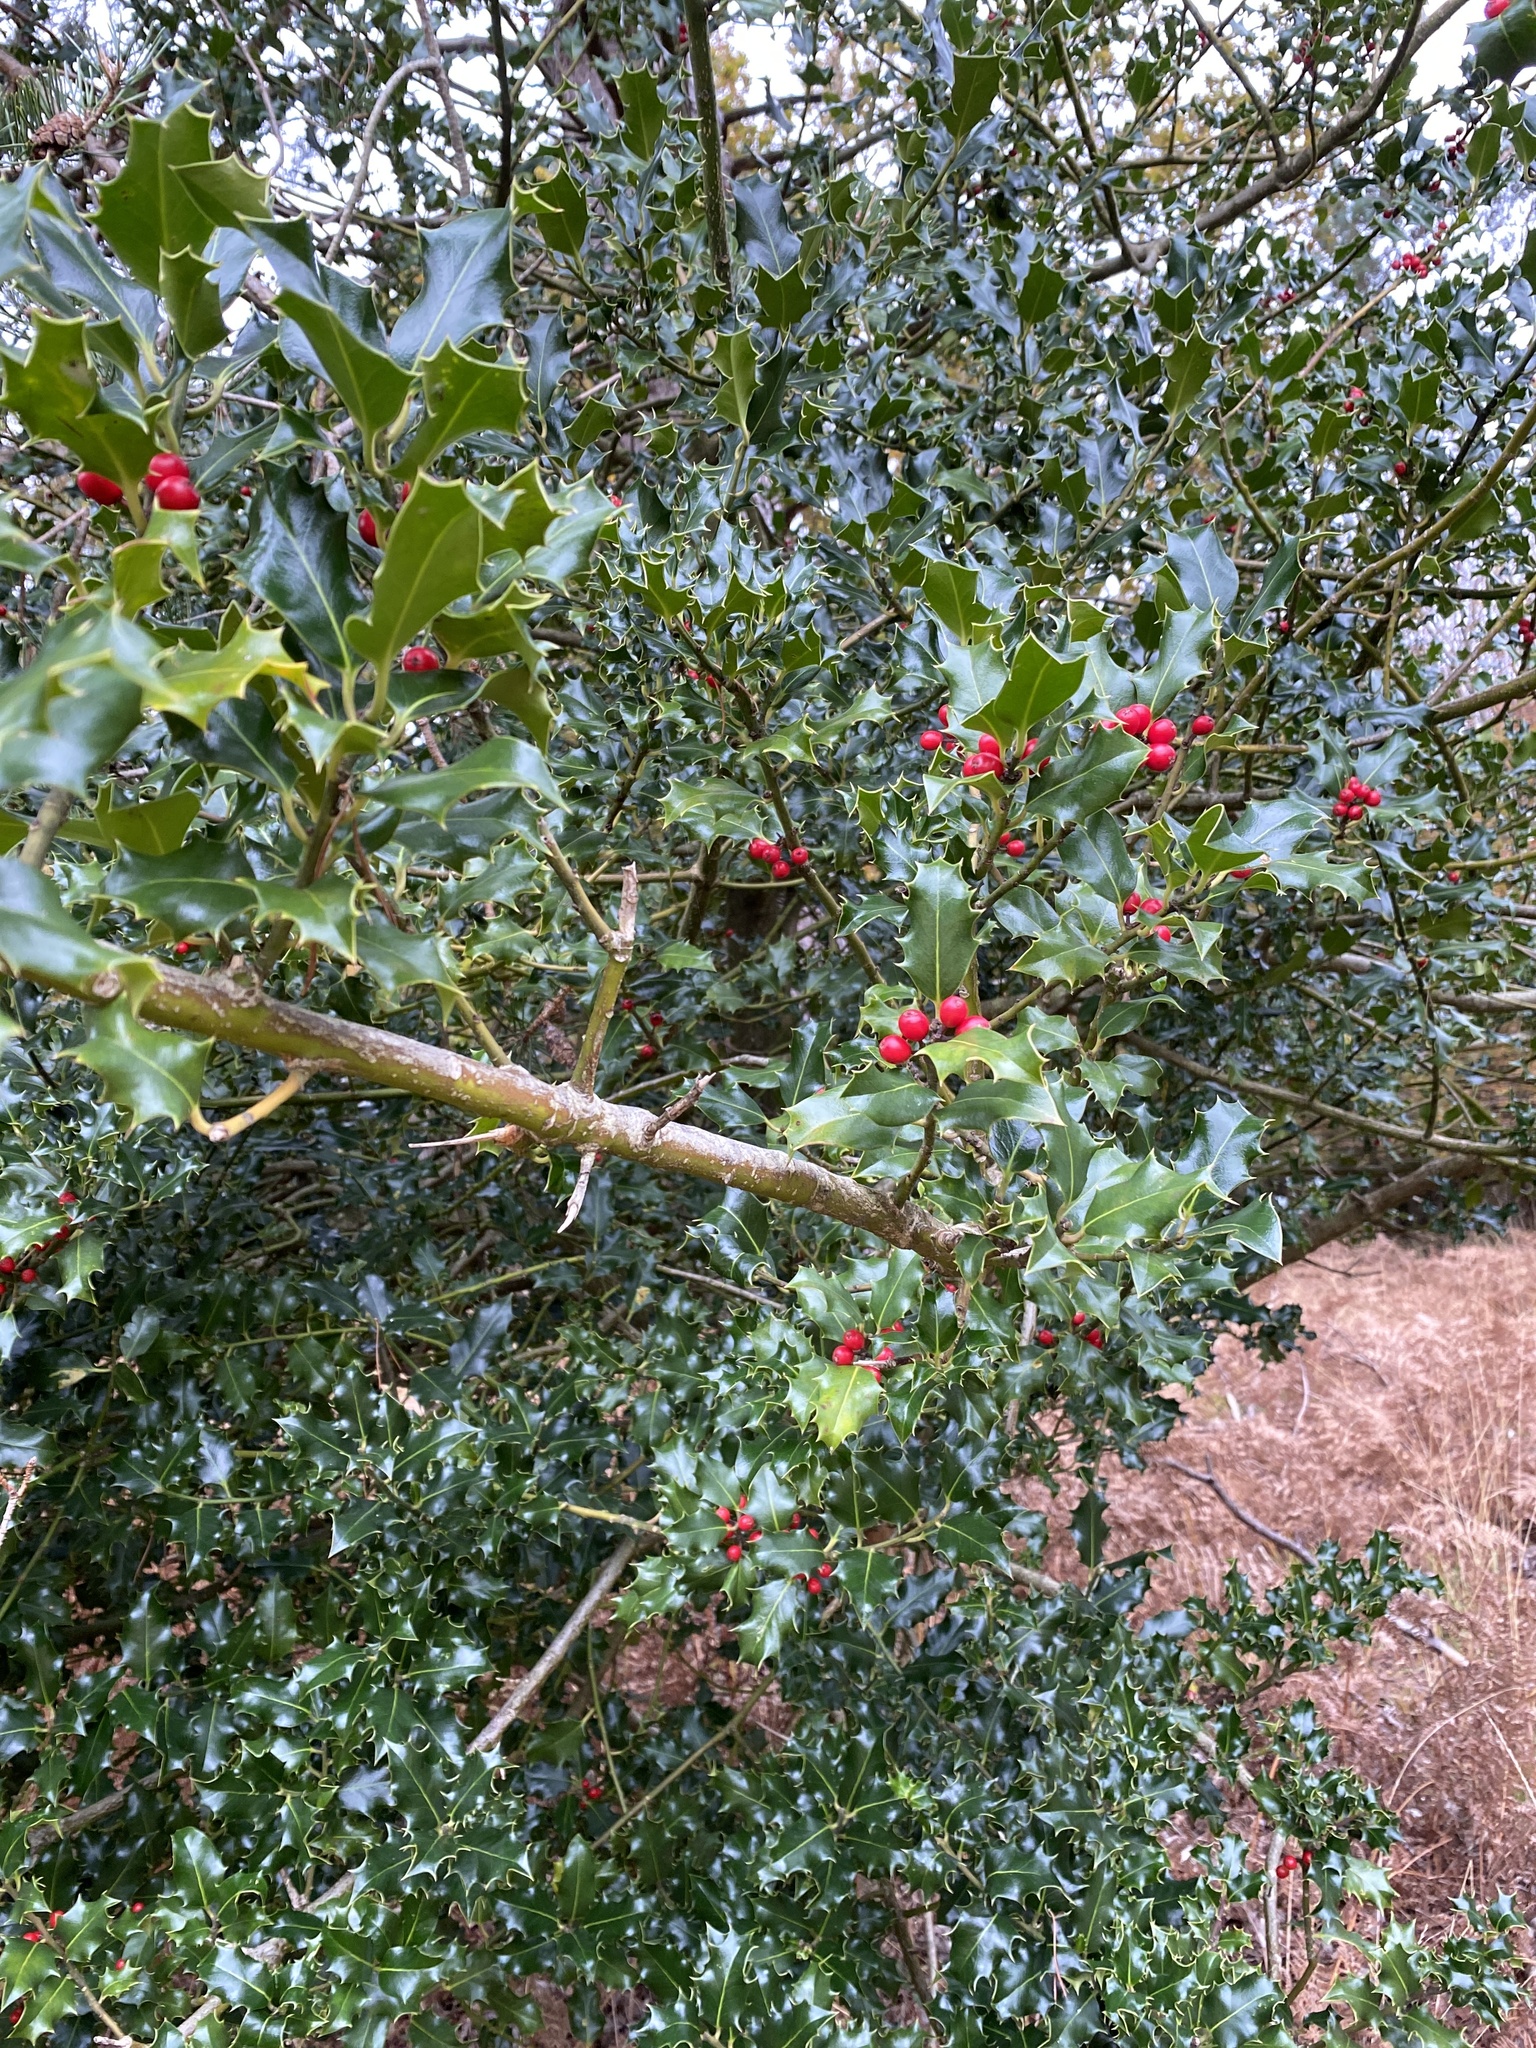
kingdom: Plantae
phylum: Tracheophyta
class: Magnoliopsida
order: Aquifoliales
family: Aquifoliaceae
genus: Ilex
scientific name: Ilex aquifolium
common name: English holly
